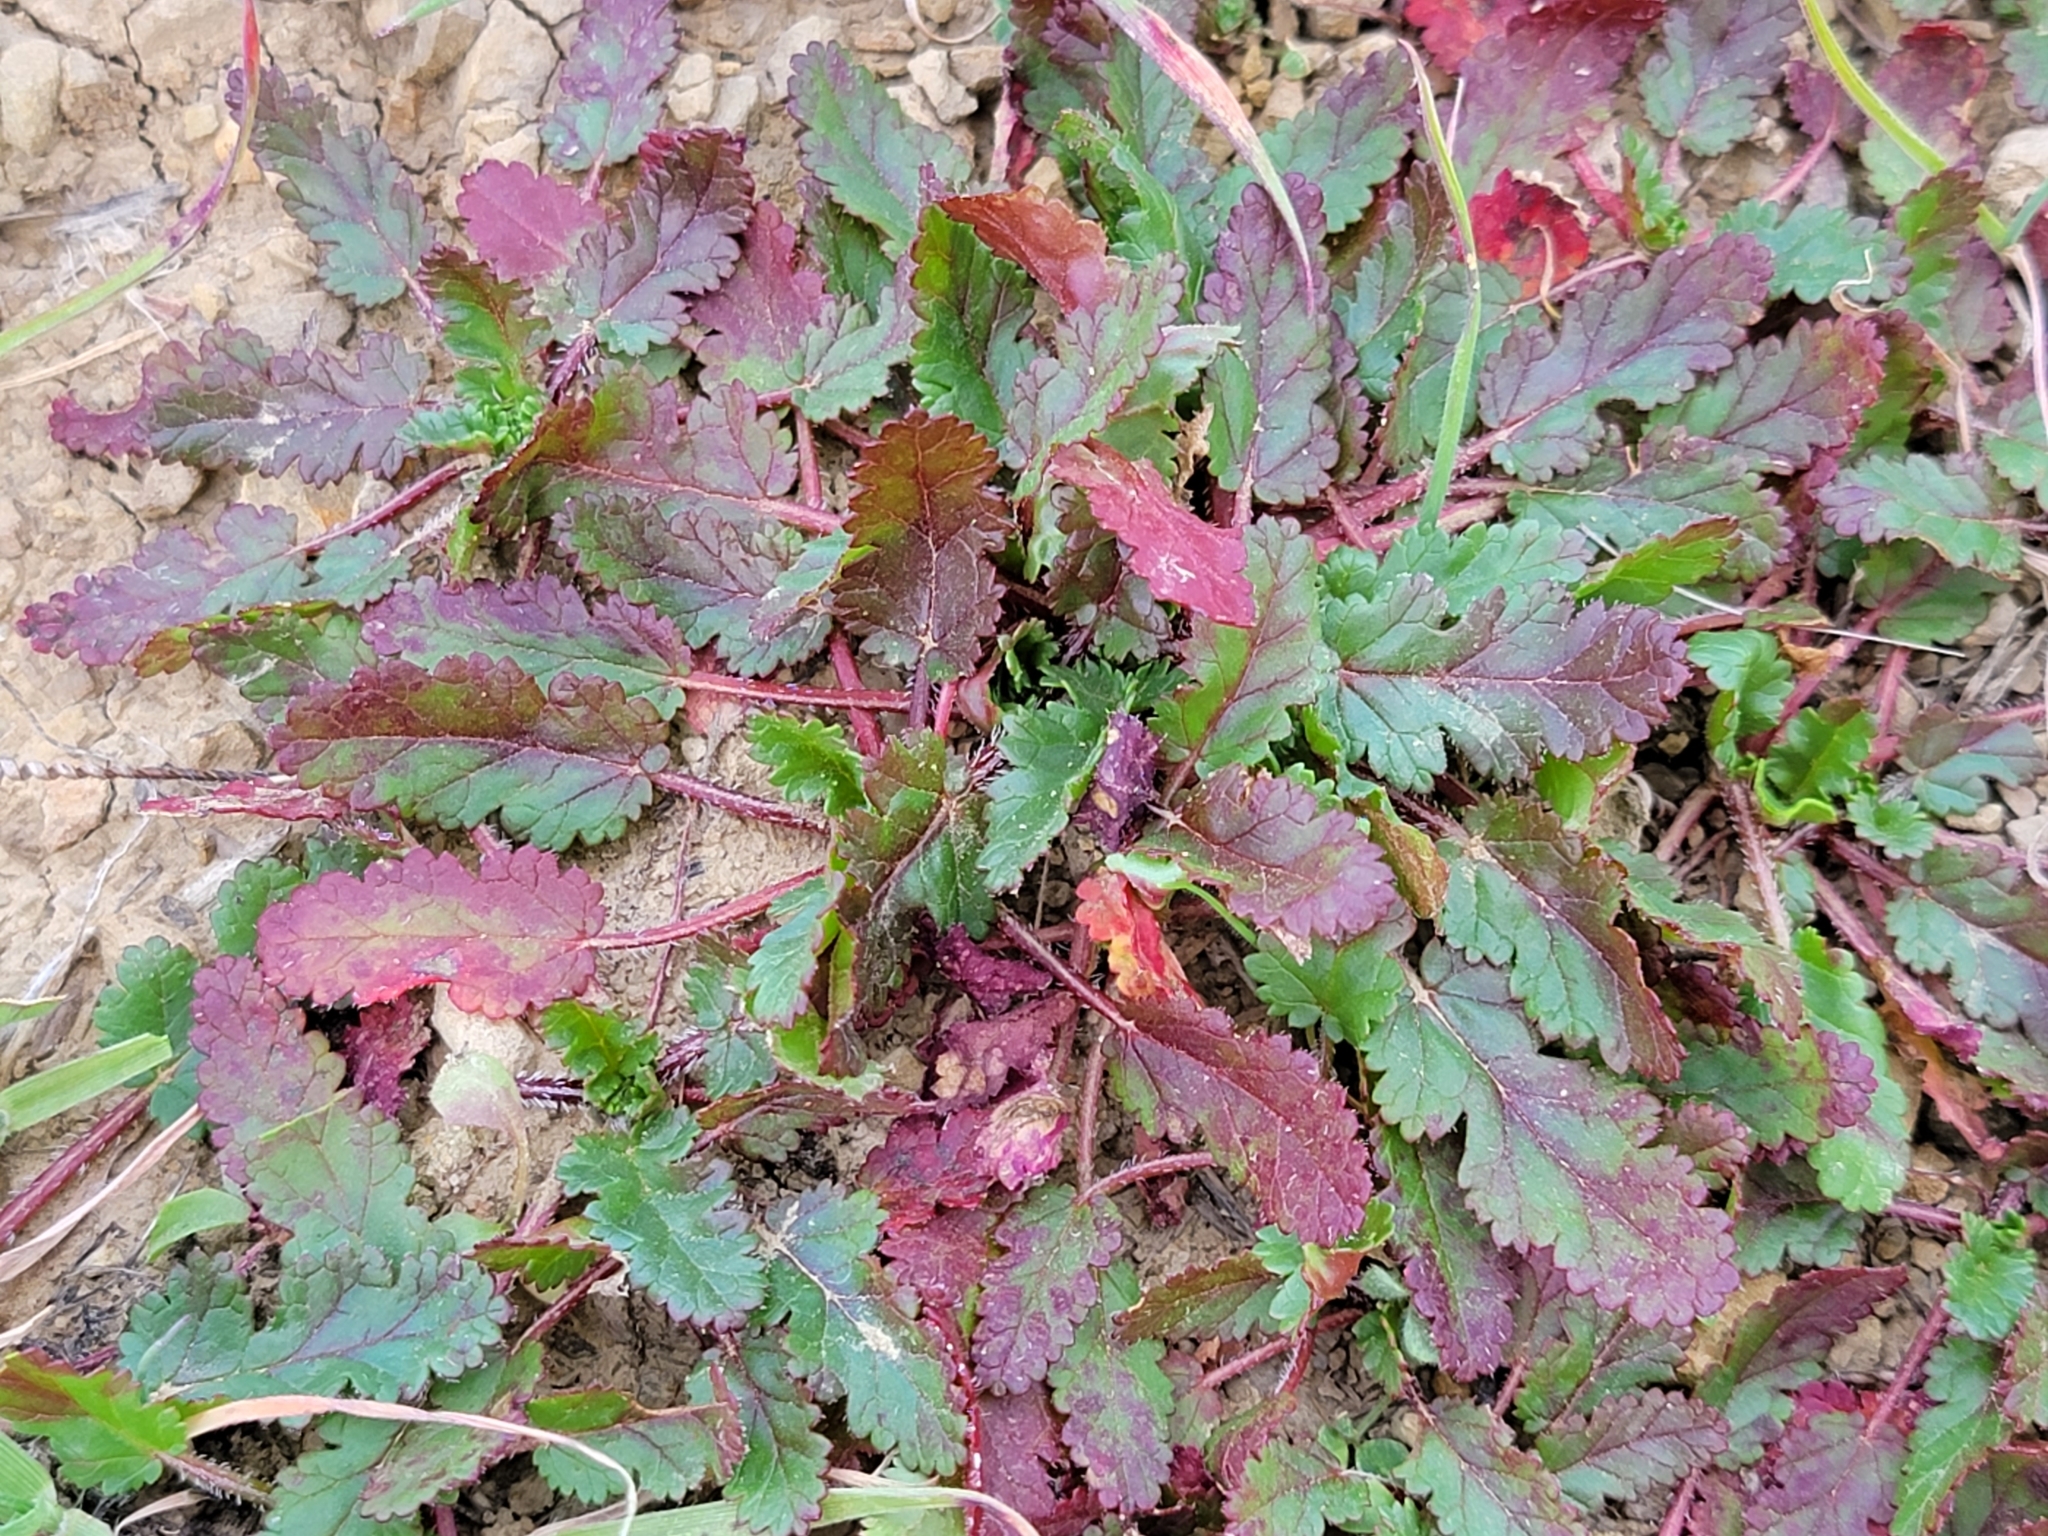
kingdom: Plantae
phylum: Tracheophyta
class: Magnoliopsida
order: Geraniales
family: Geraniaceae
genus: Erodium
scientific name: Erodium
